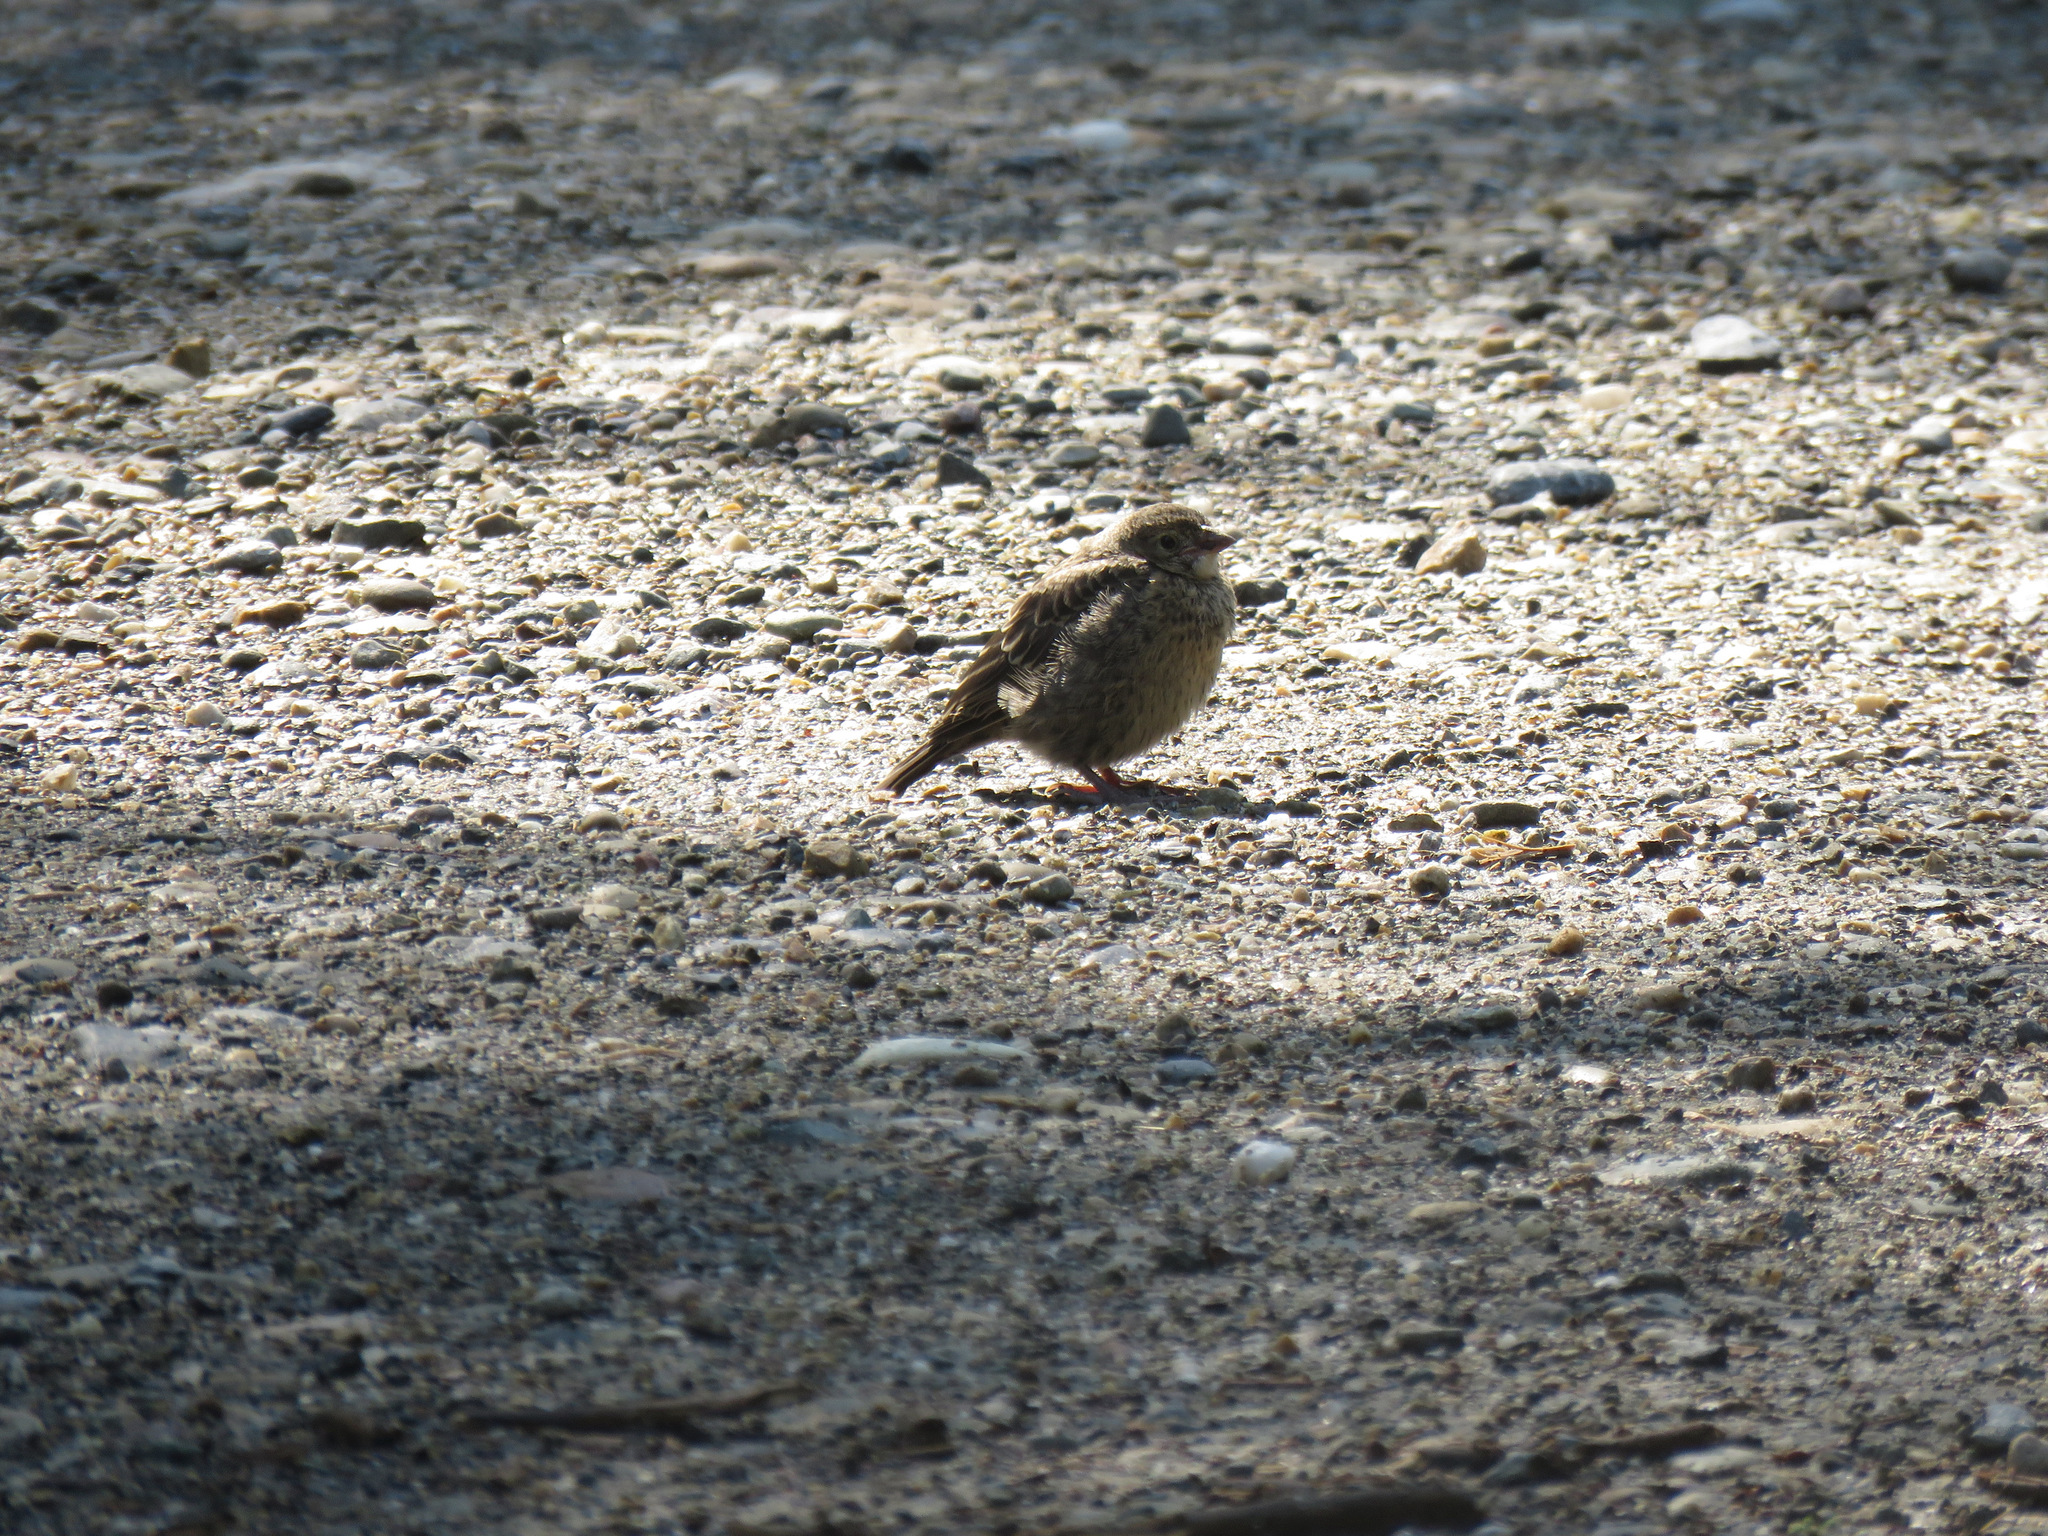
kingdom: Animalia
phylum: Chordata
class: Aves
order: Passeriformes
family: Icteridae
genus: Molothrus
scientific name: Molothrus ater
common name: Brown-headed cowbird
